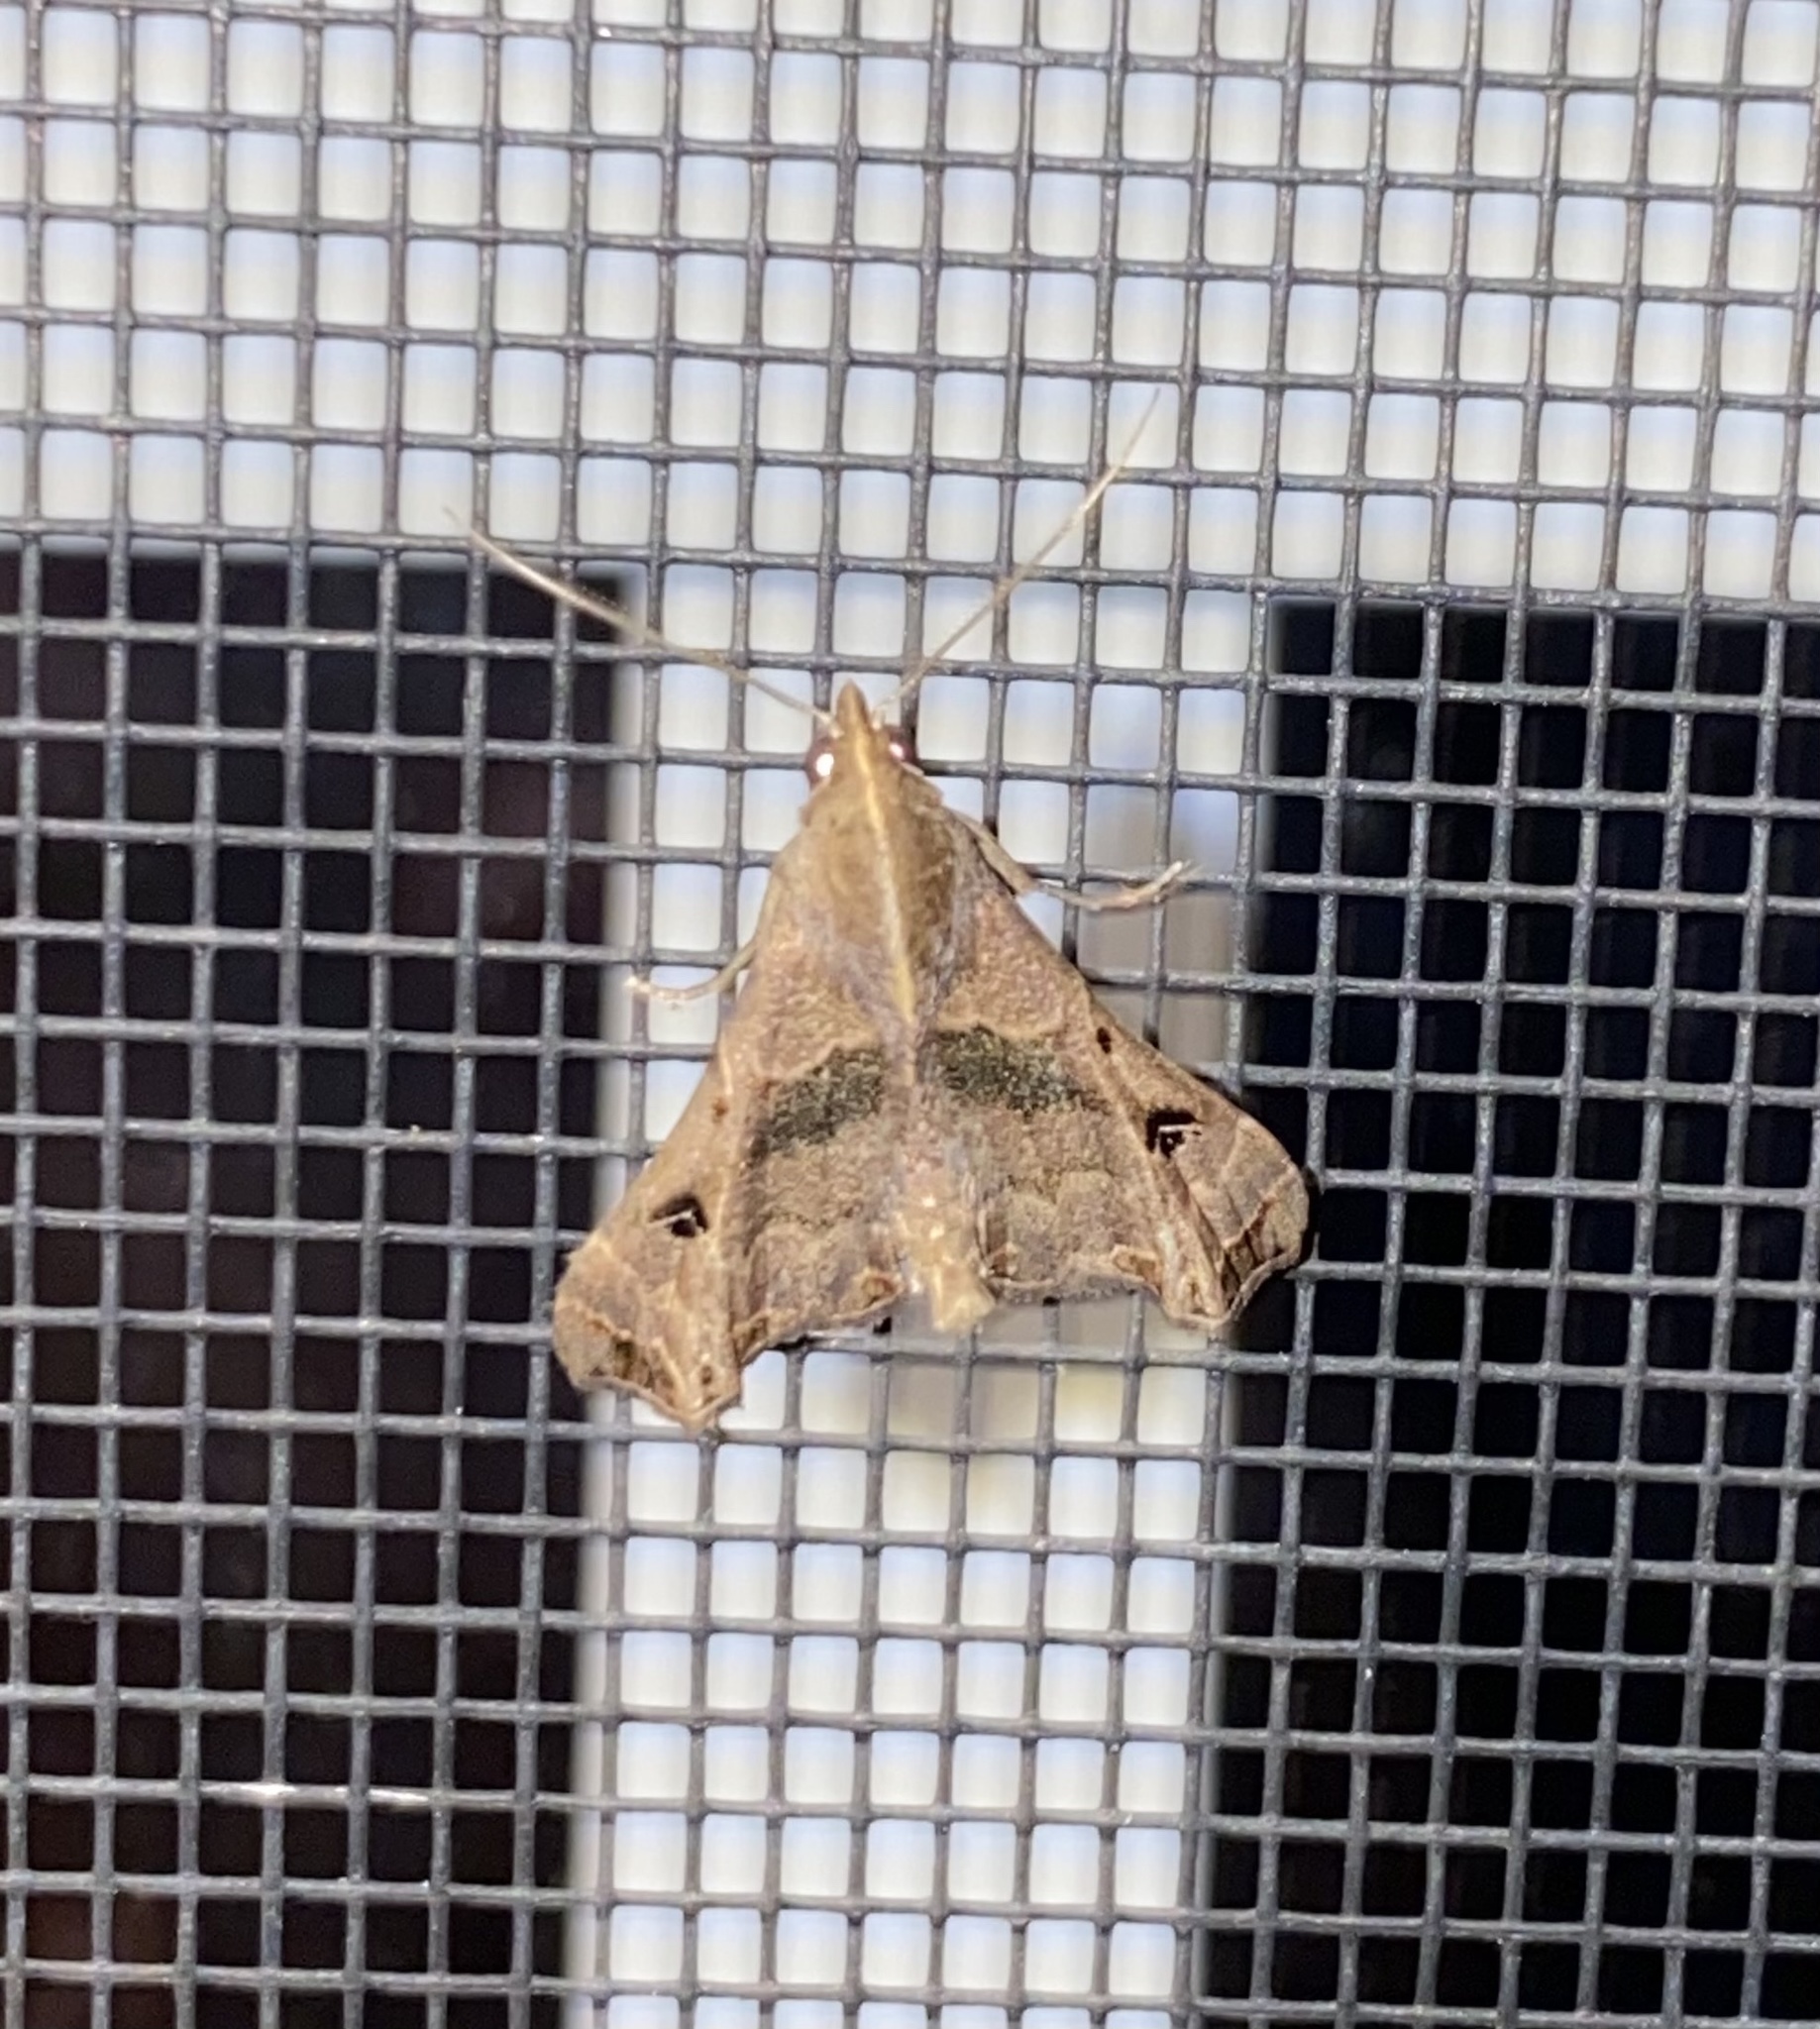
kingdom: Animalia
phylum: Arthropoda
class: Insecta
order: Lepidoptera
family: Erebidae
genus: Palthis
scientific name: Palthis asopialis
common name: Faint-spotted palthis moth
